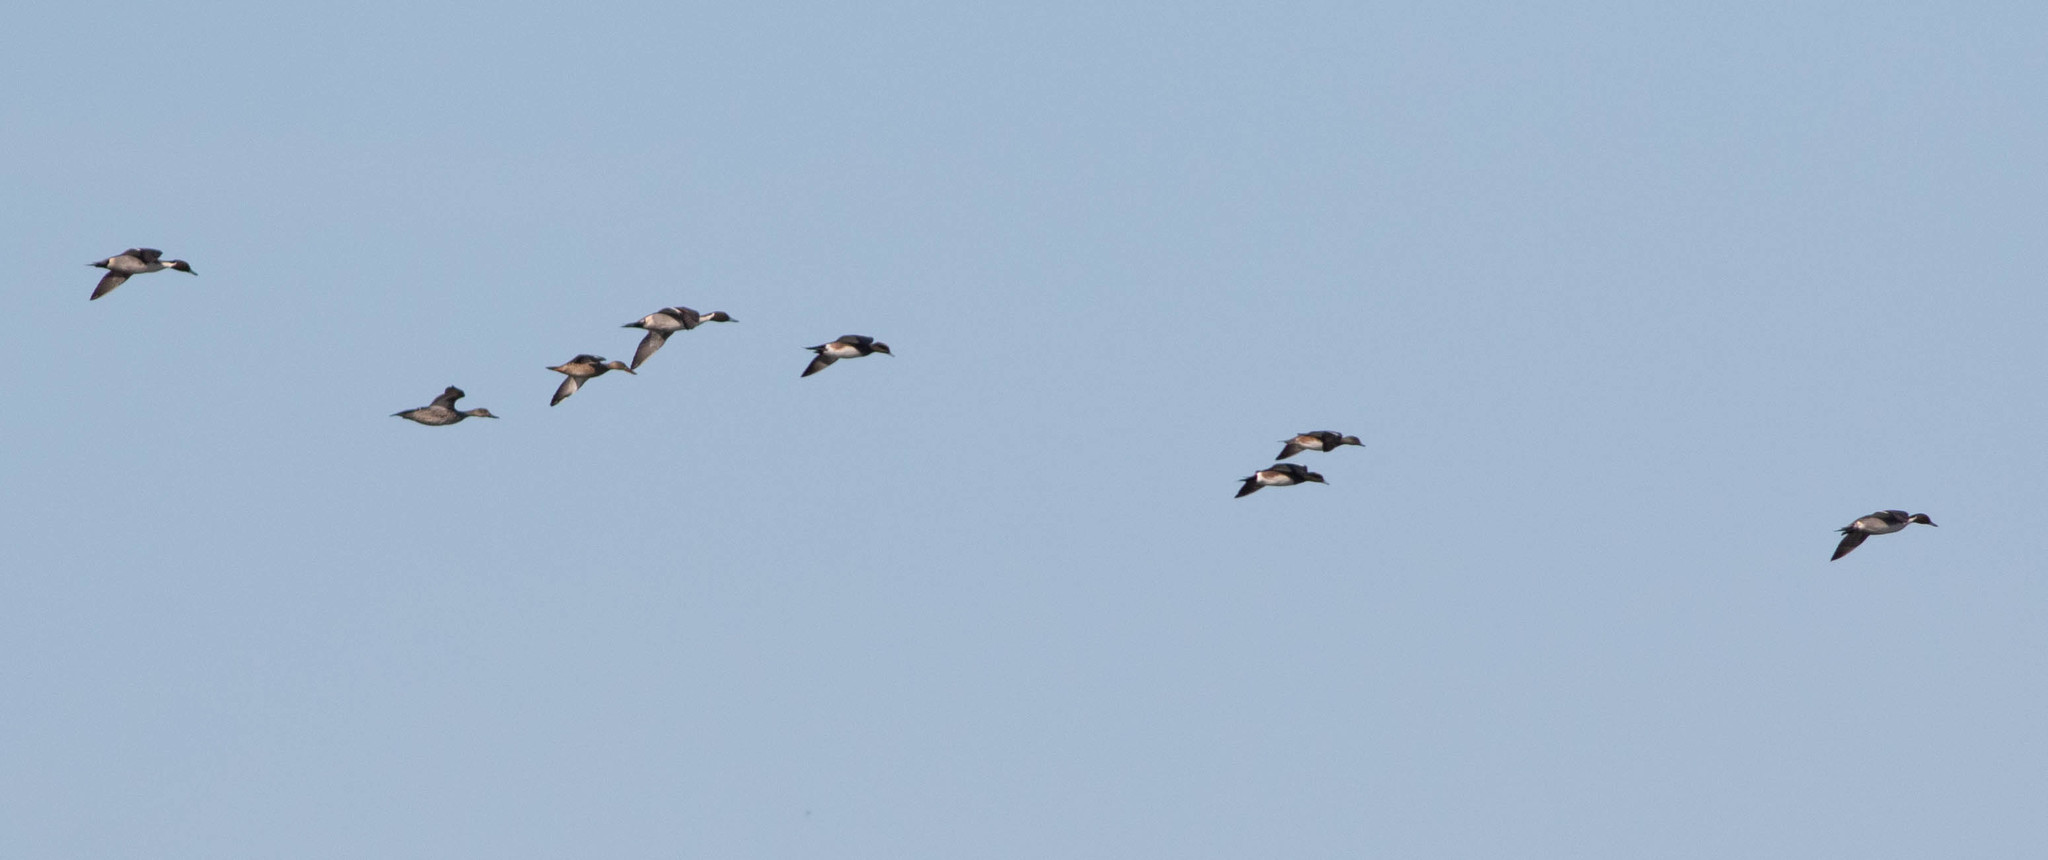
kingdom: Animalia
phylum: Chordata
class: Aves
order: Anseriformes
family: Anatidae
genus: Anas
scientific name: Anas acuta
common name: Northern pintail
